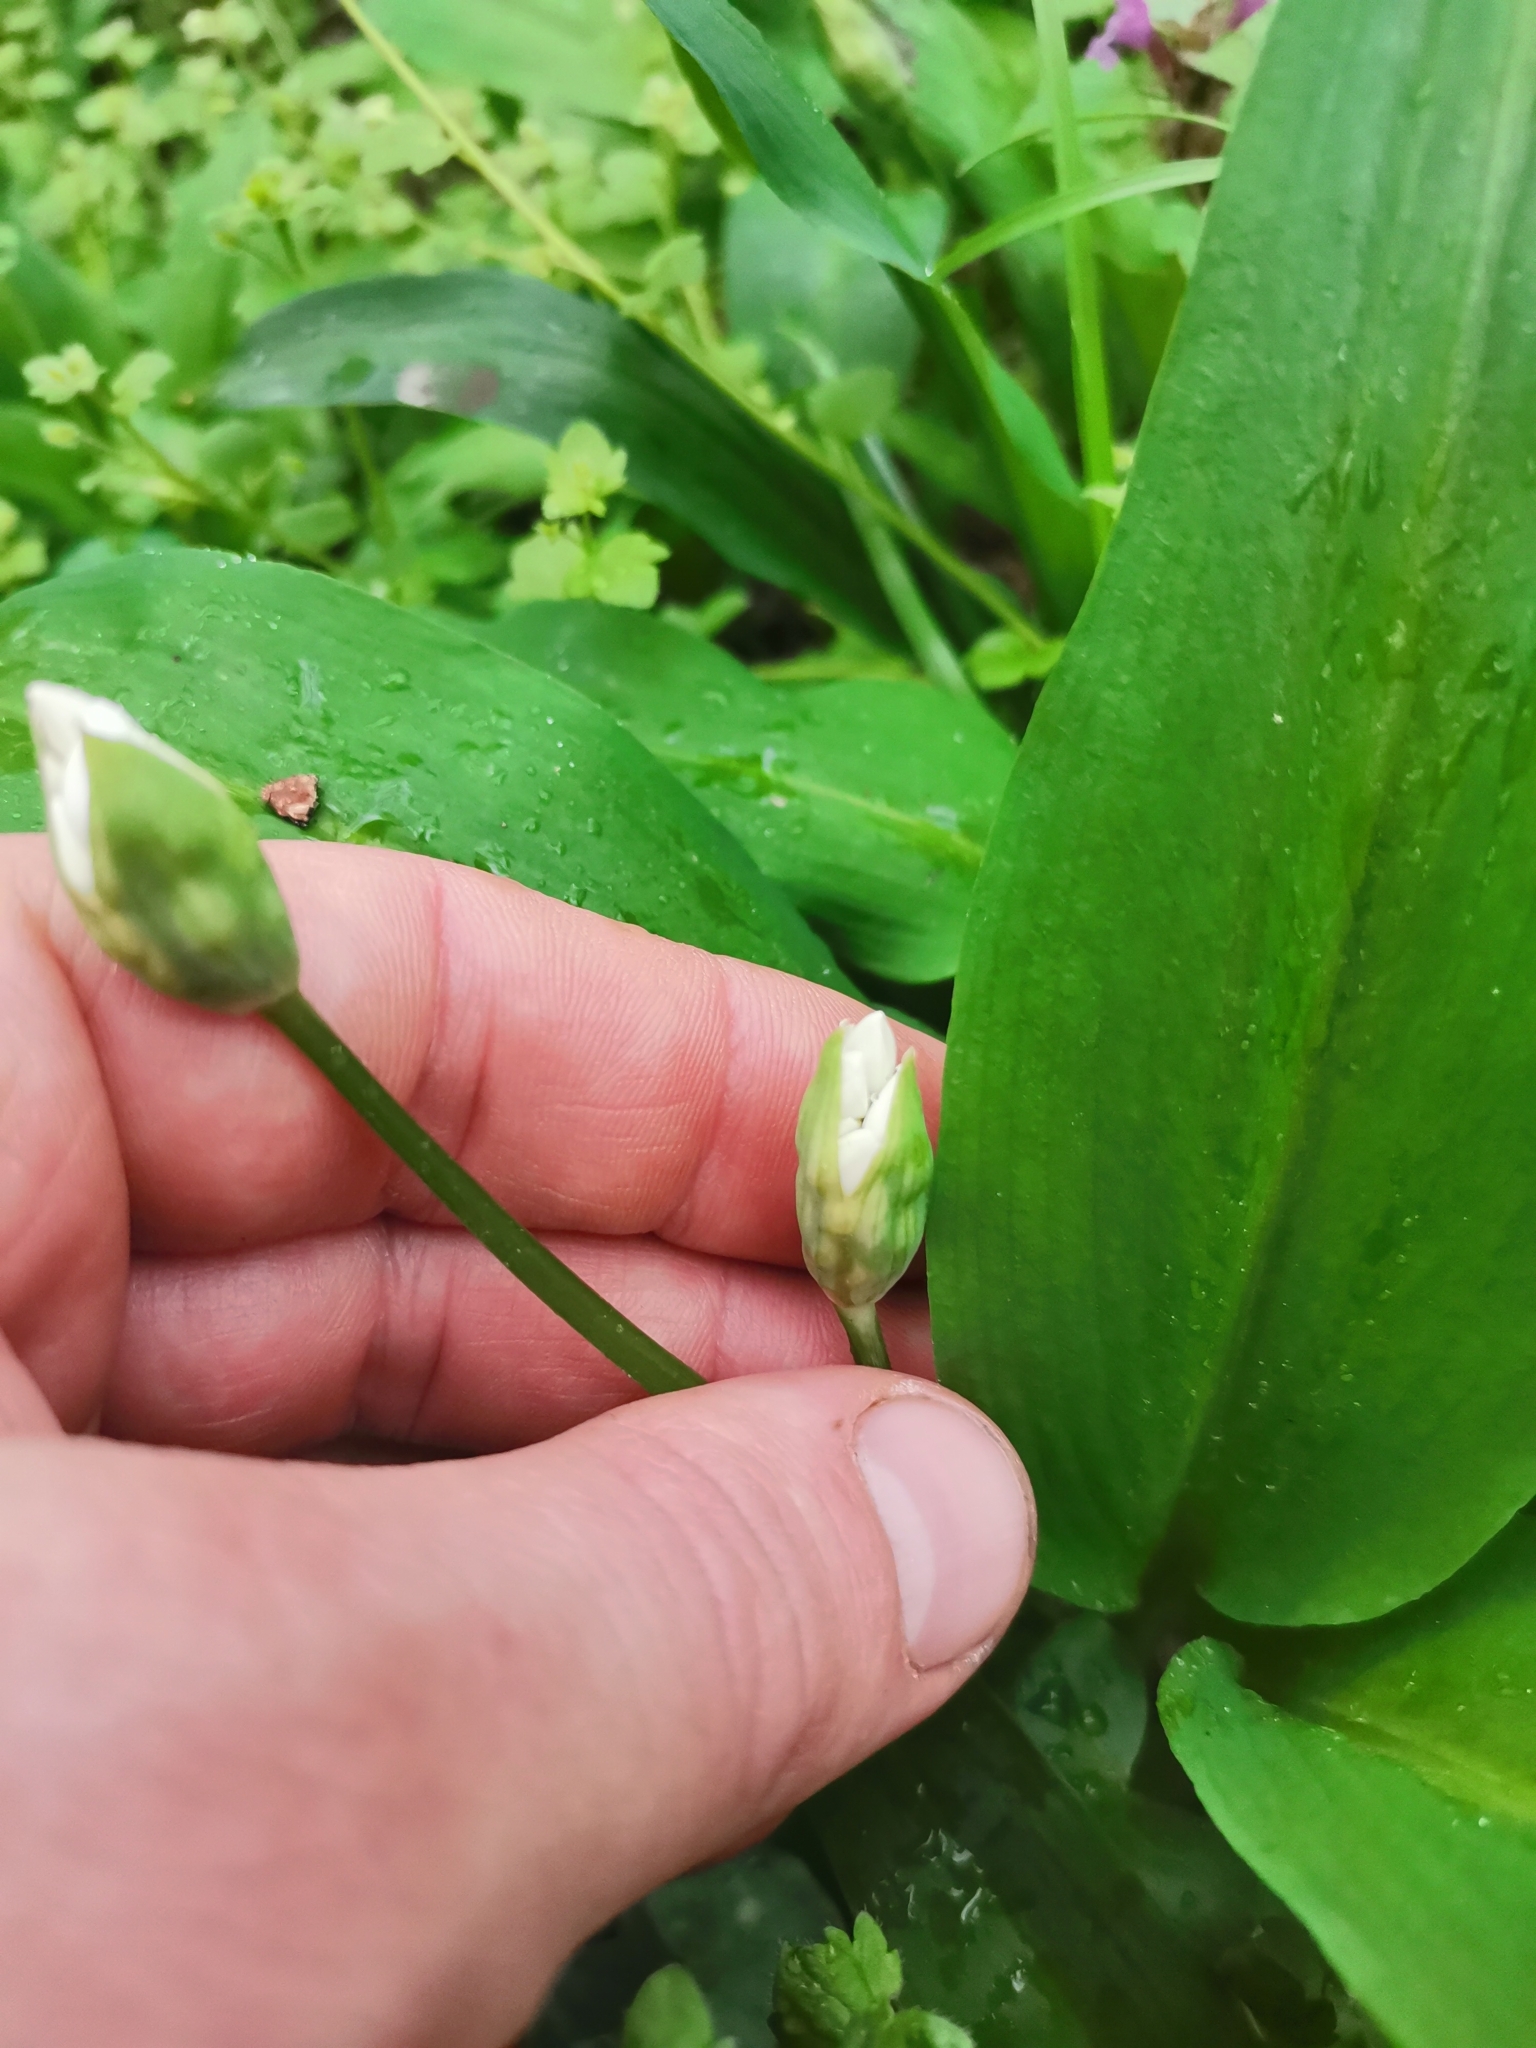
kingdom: Plantae
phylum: Tracheophyta
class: Liliopsida
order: Asparagales
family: Amaryllidaceae
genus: Allium
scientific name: Allium ursinum
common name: Ramsons
